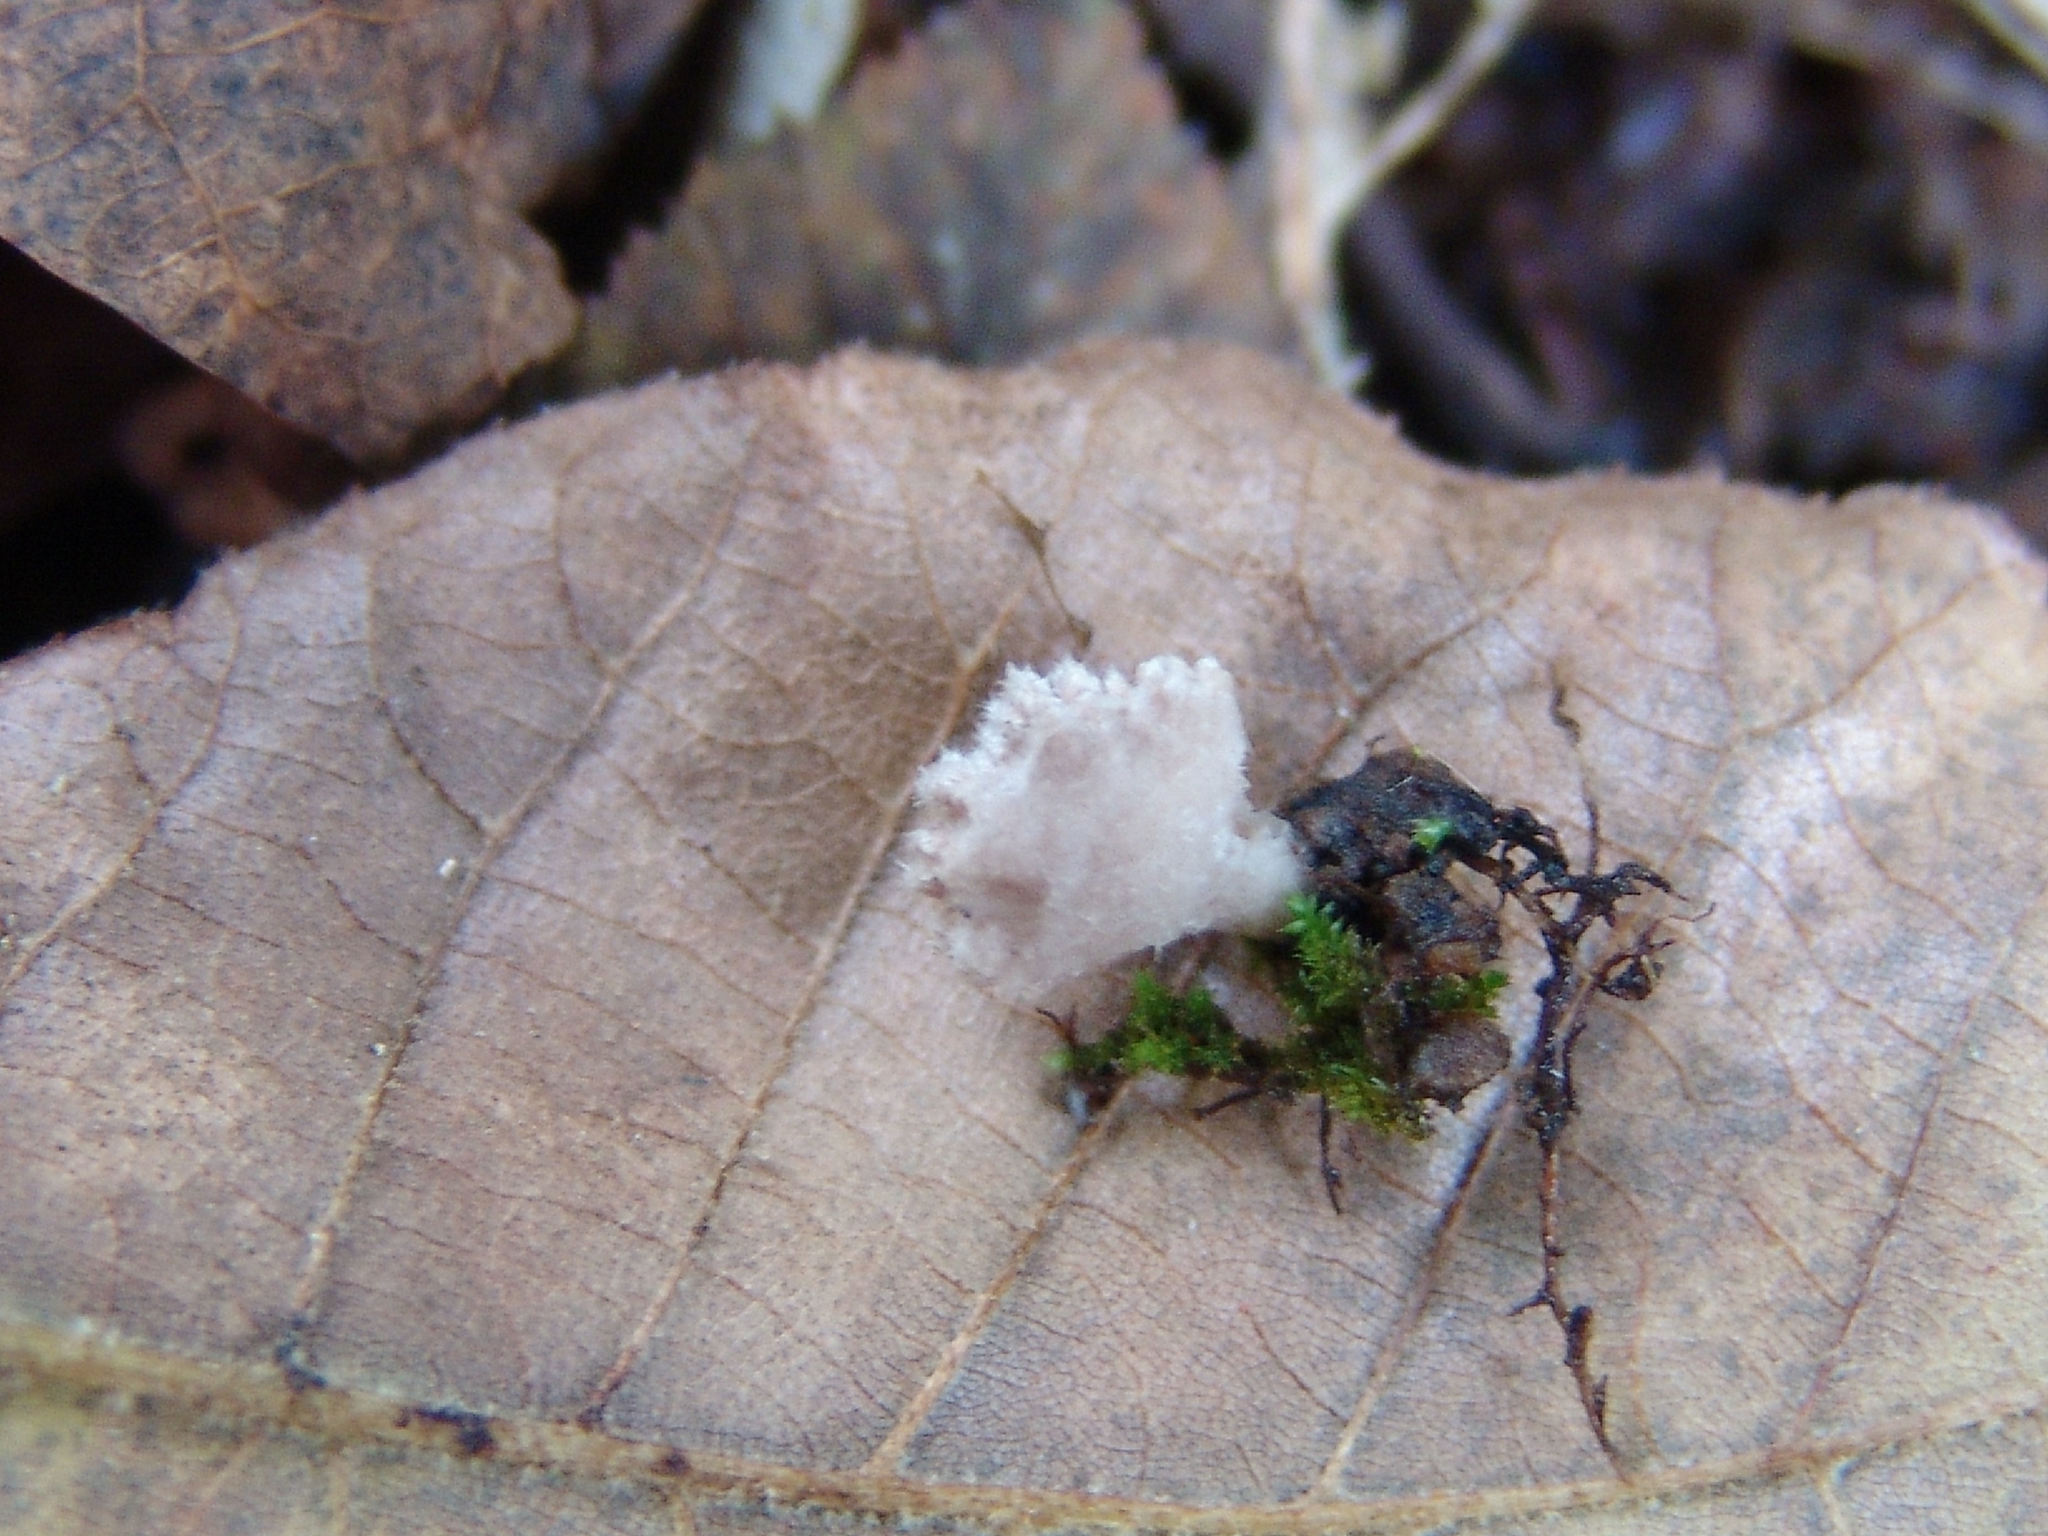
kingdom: Fungi
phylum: Basidiomycota
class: Agaricomycetes
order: Agaricales
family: Schizophyllaceae
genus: Schizophyllum
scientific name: Schizophyllum commune
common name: Common porecrust
